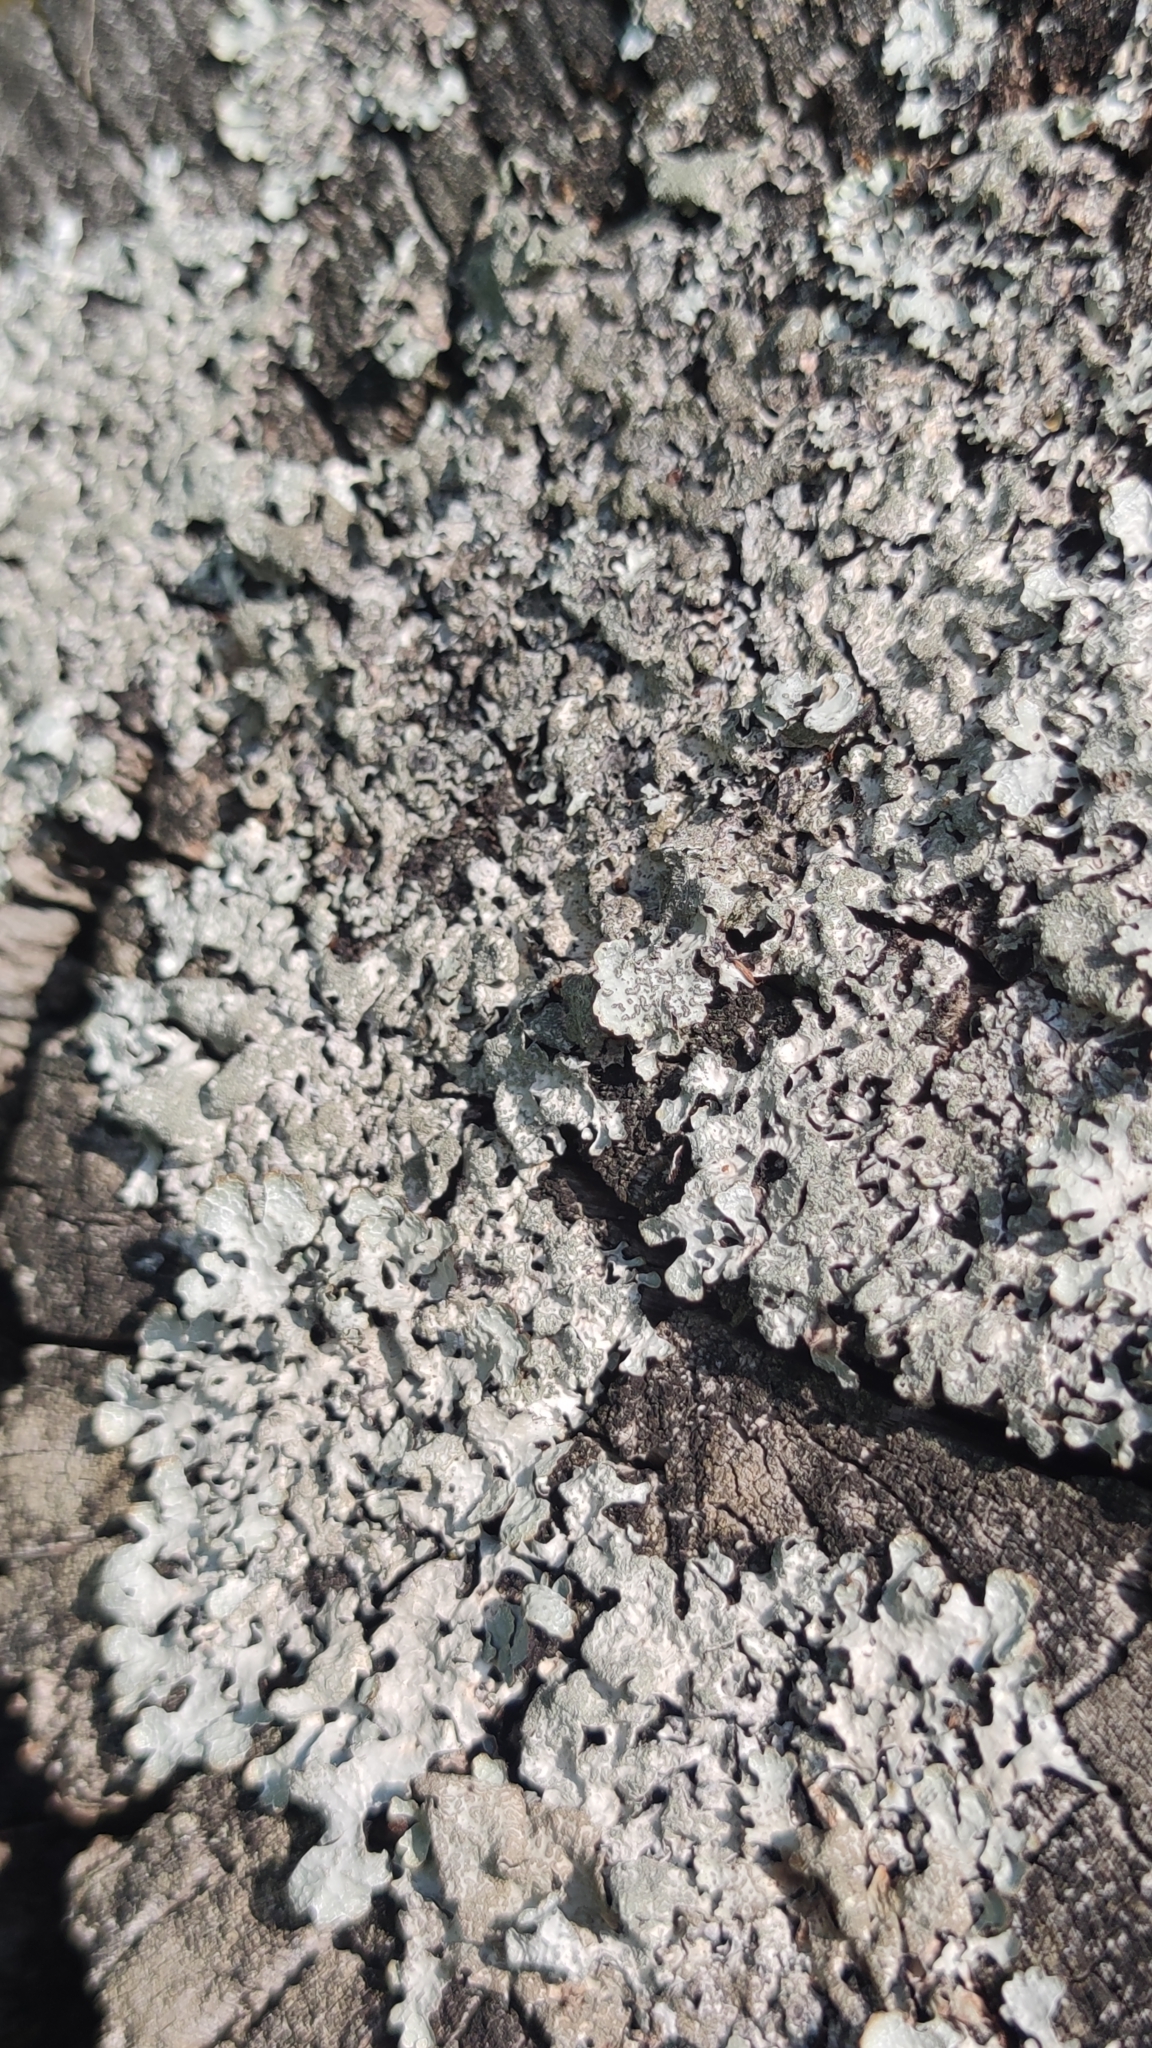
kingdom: Fungi
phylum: Ascomycota
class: Lecanoromycetes
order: Lecanorales
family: Parmeliaceae
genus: Parmelia
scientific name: Parmelia sulcata
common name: Netted shield lichen
